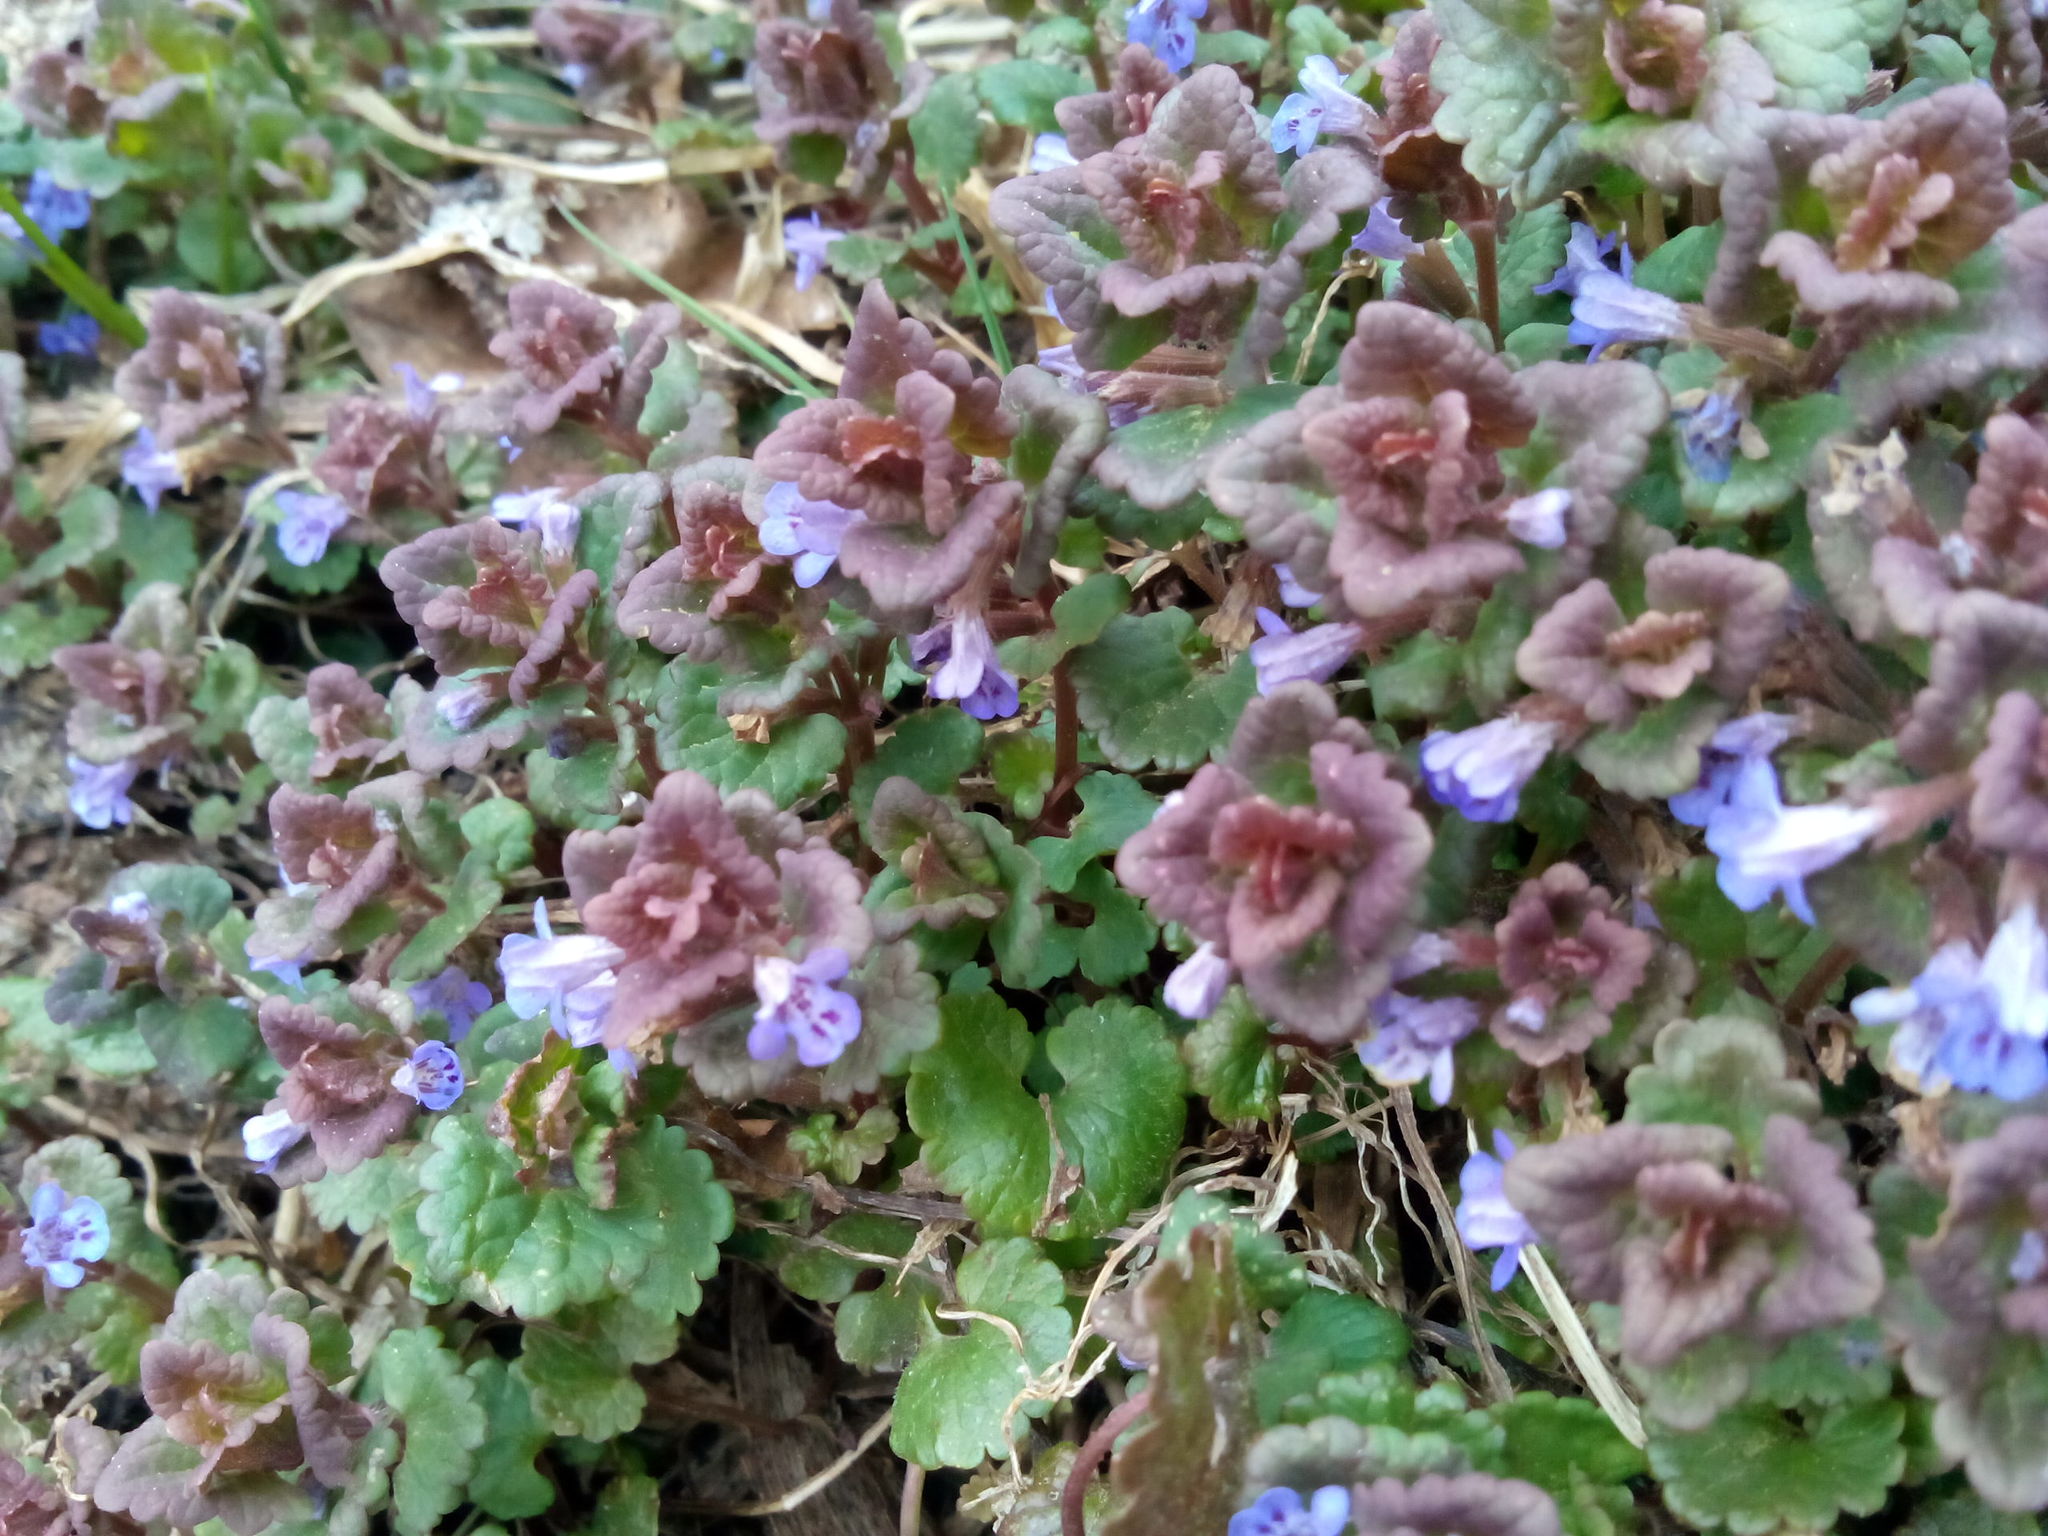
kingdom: Plantae
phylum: Tracheophyta
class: Magnoliopsida
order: Lamiales
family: Lamiaceae
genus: Glechoma
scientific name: Glechoma hederacea
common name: Ground ivy
